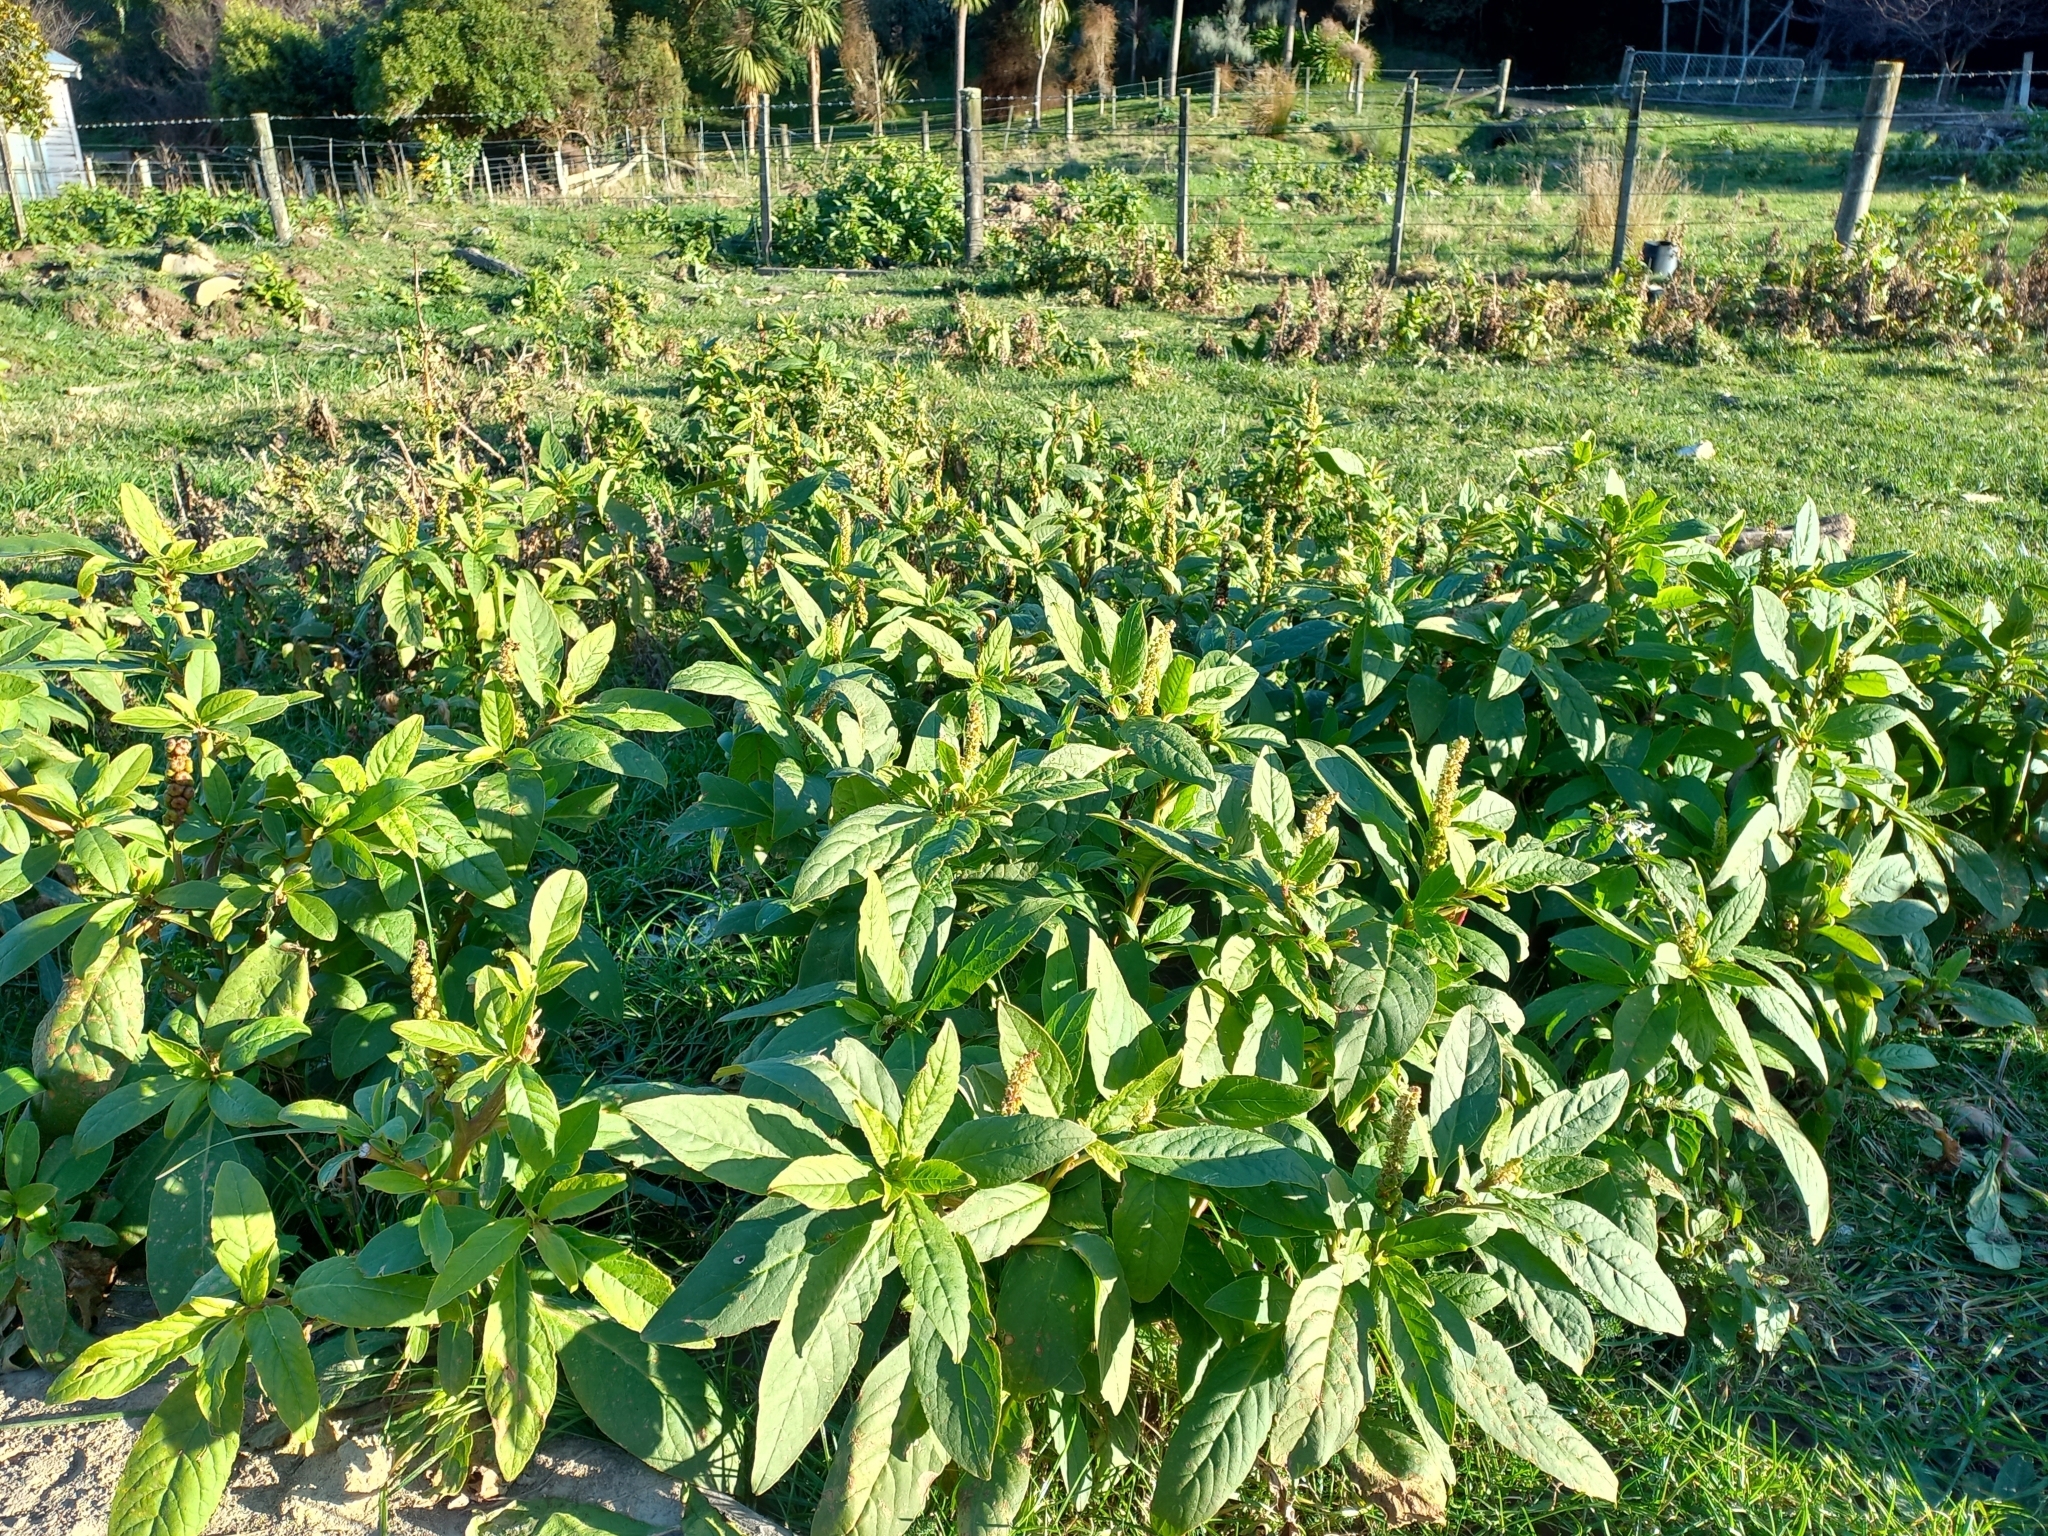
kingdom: Plantae
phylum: Tracheophyta
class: Magnoliopsida
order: Caryophyllales
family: Phytolaccaceae
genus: Phytolacca
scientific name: Phytolacca icosandra
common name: Button pokeweed
